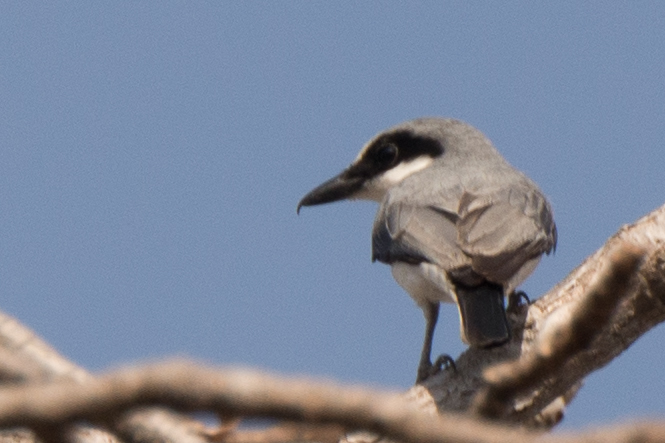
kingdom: Animalia
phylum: Chordata
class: Aves
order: Passeriformes
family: Tephrodornithidae
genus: Tephrodornis
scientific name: Tephrodornis virgatus
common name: Large woodshrike
